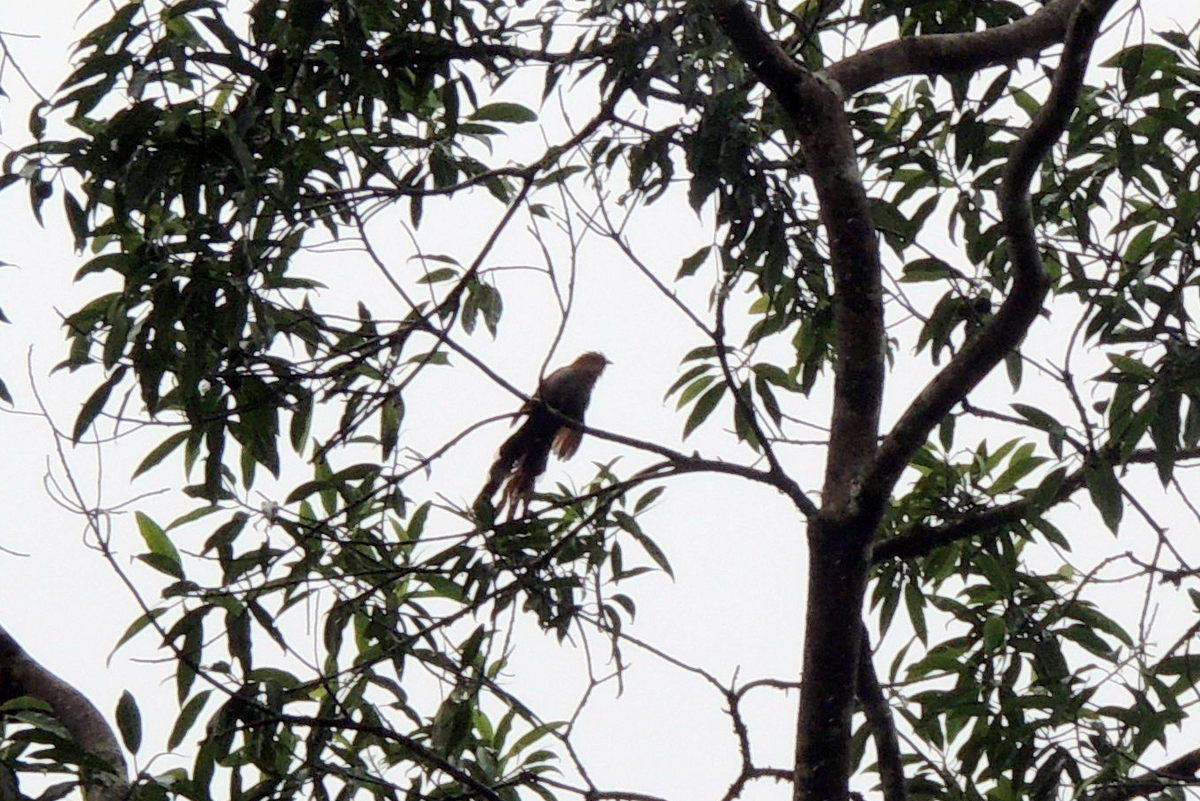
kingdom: Animalia
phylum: Chordata
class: Aves
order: Cuculiformes
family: Cuculidae
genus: Piaya
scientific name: Piaya cayana
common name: Squirrel cuckoo
